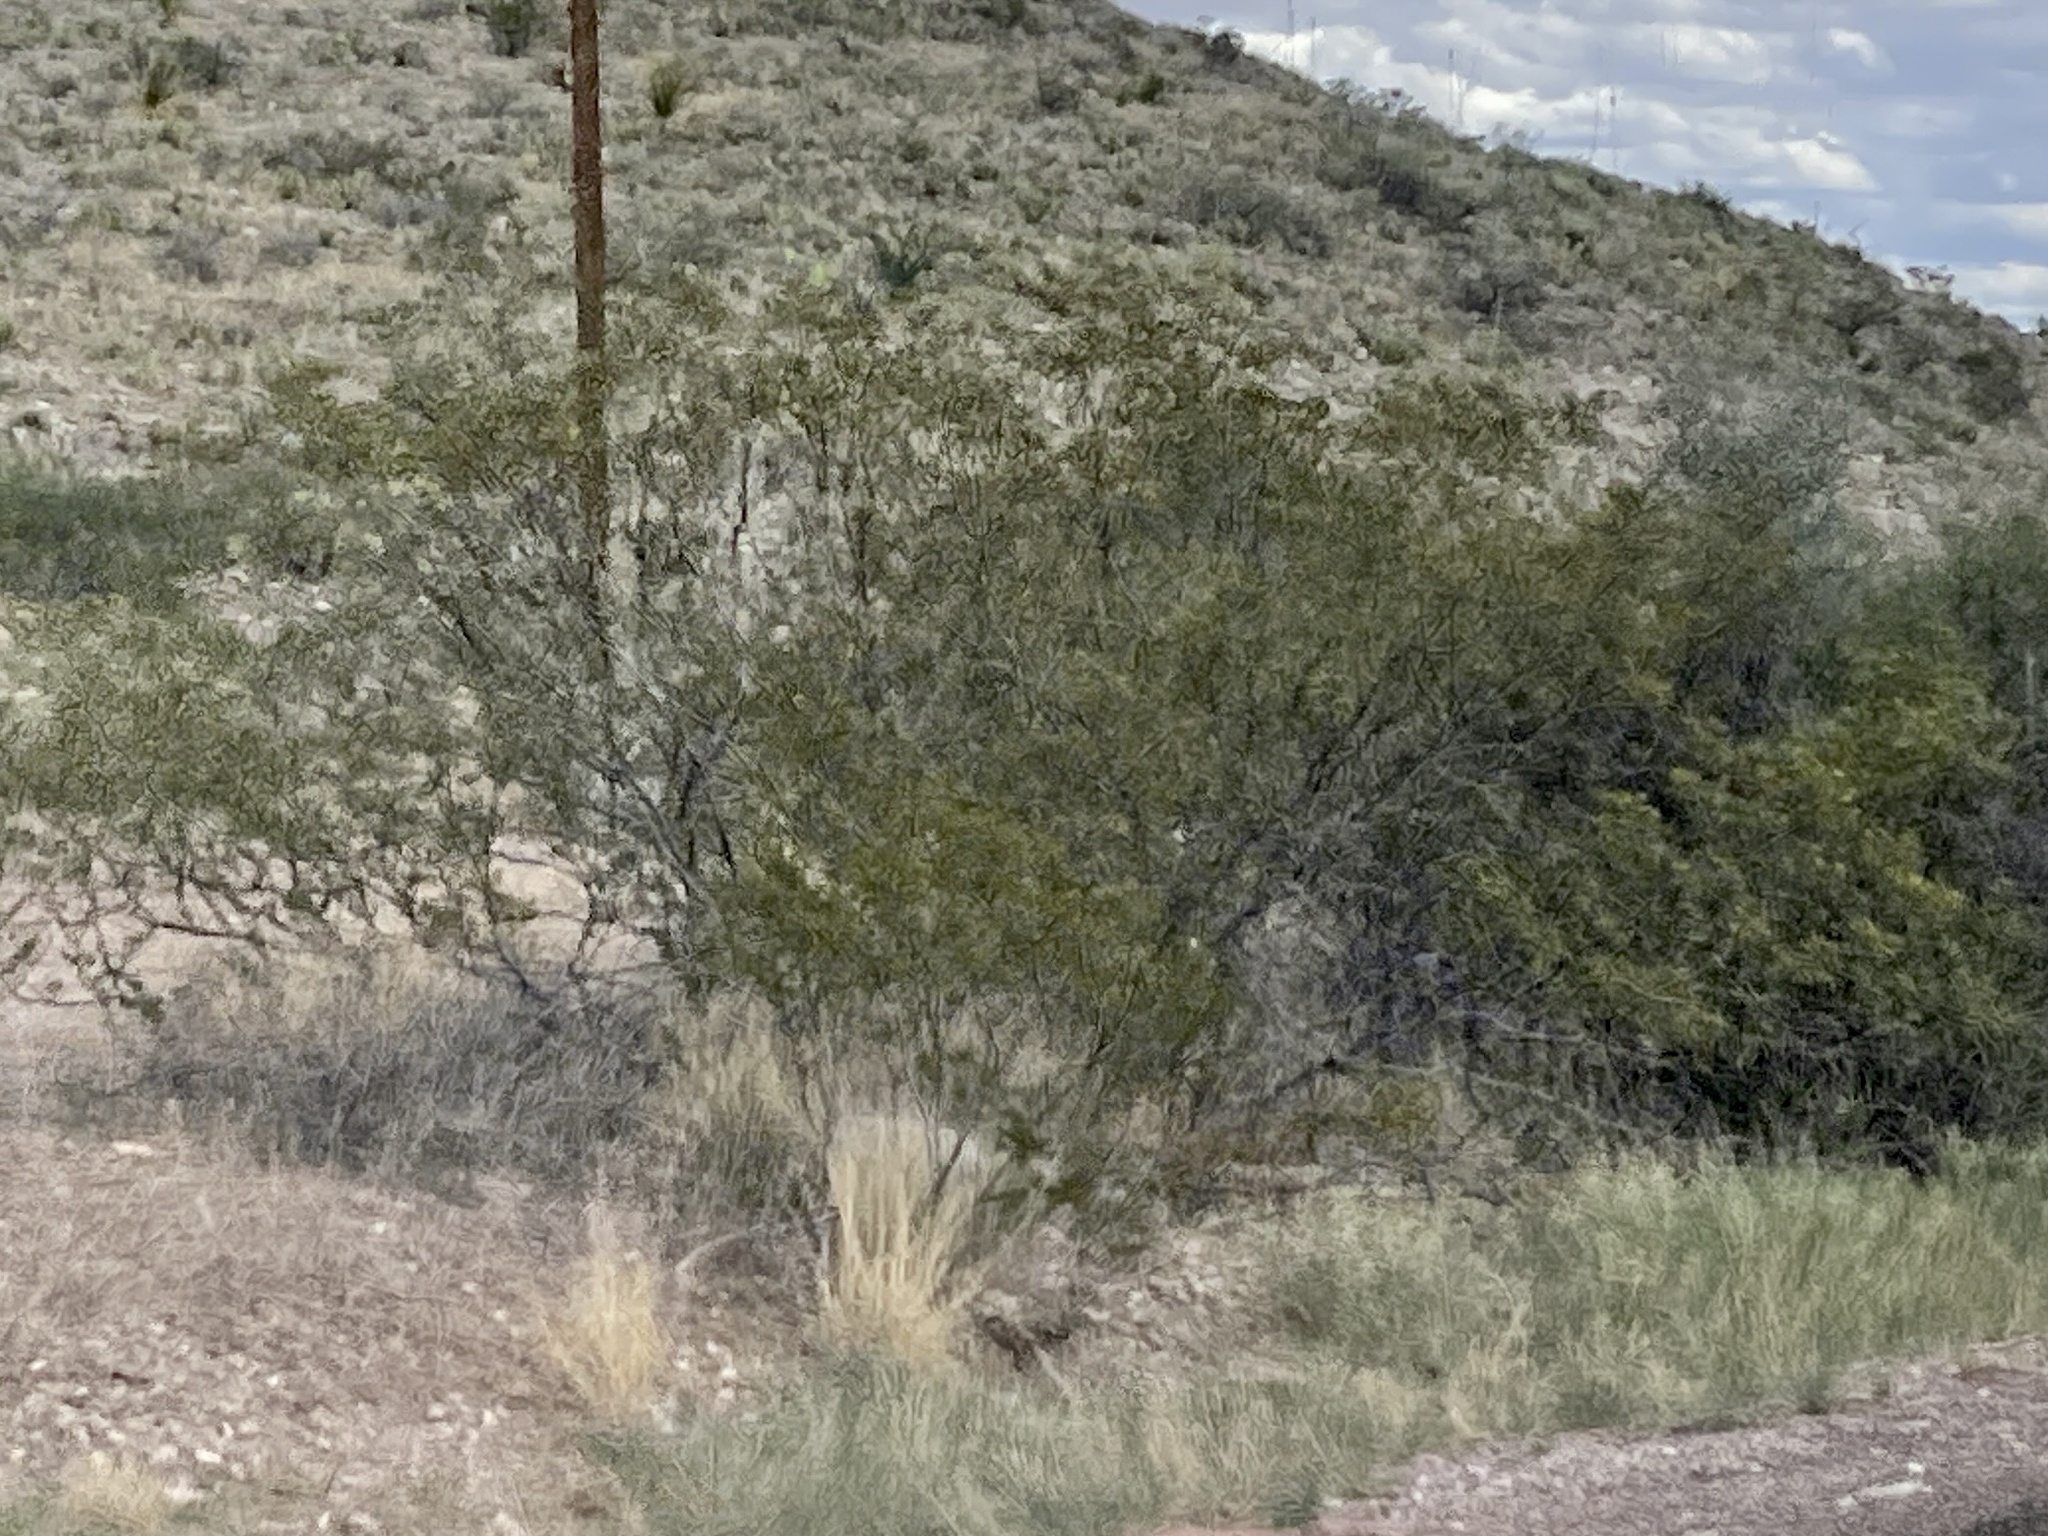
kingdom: Plantae
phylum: Tracheophyta
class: Magnoliopsida
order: Zygophyllales
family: Zygophyllaceae
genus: Larrea
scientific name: Larrea tridentata
